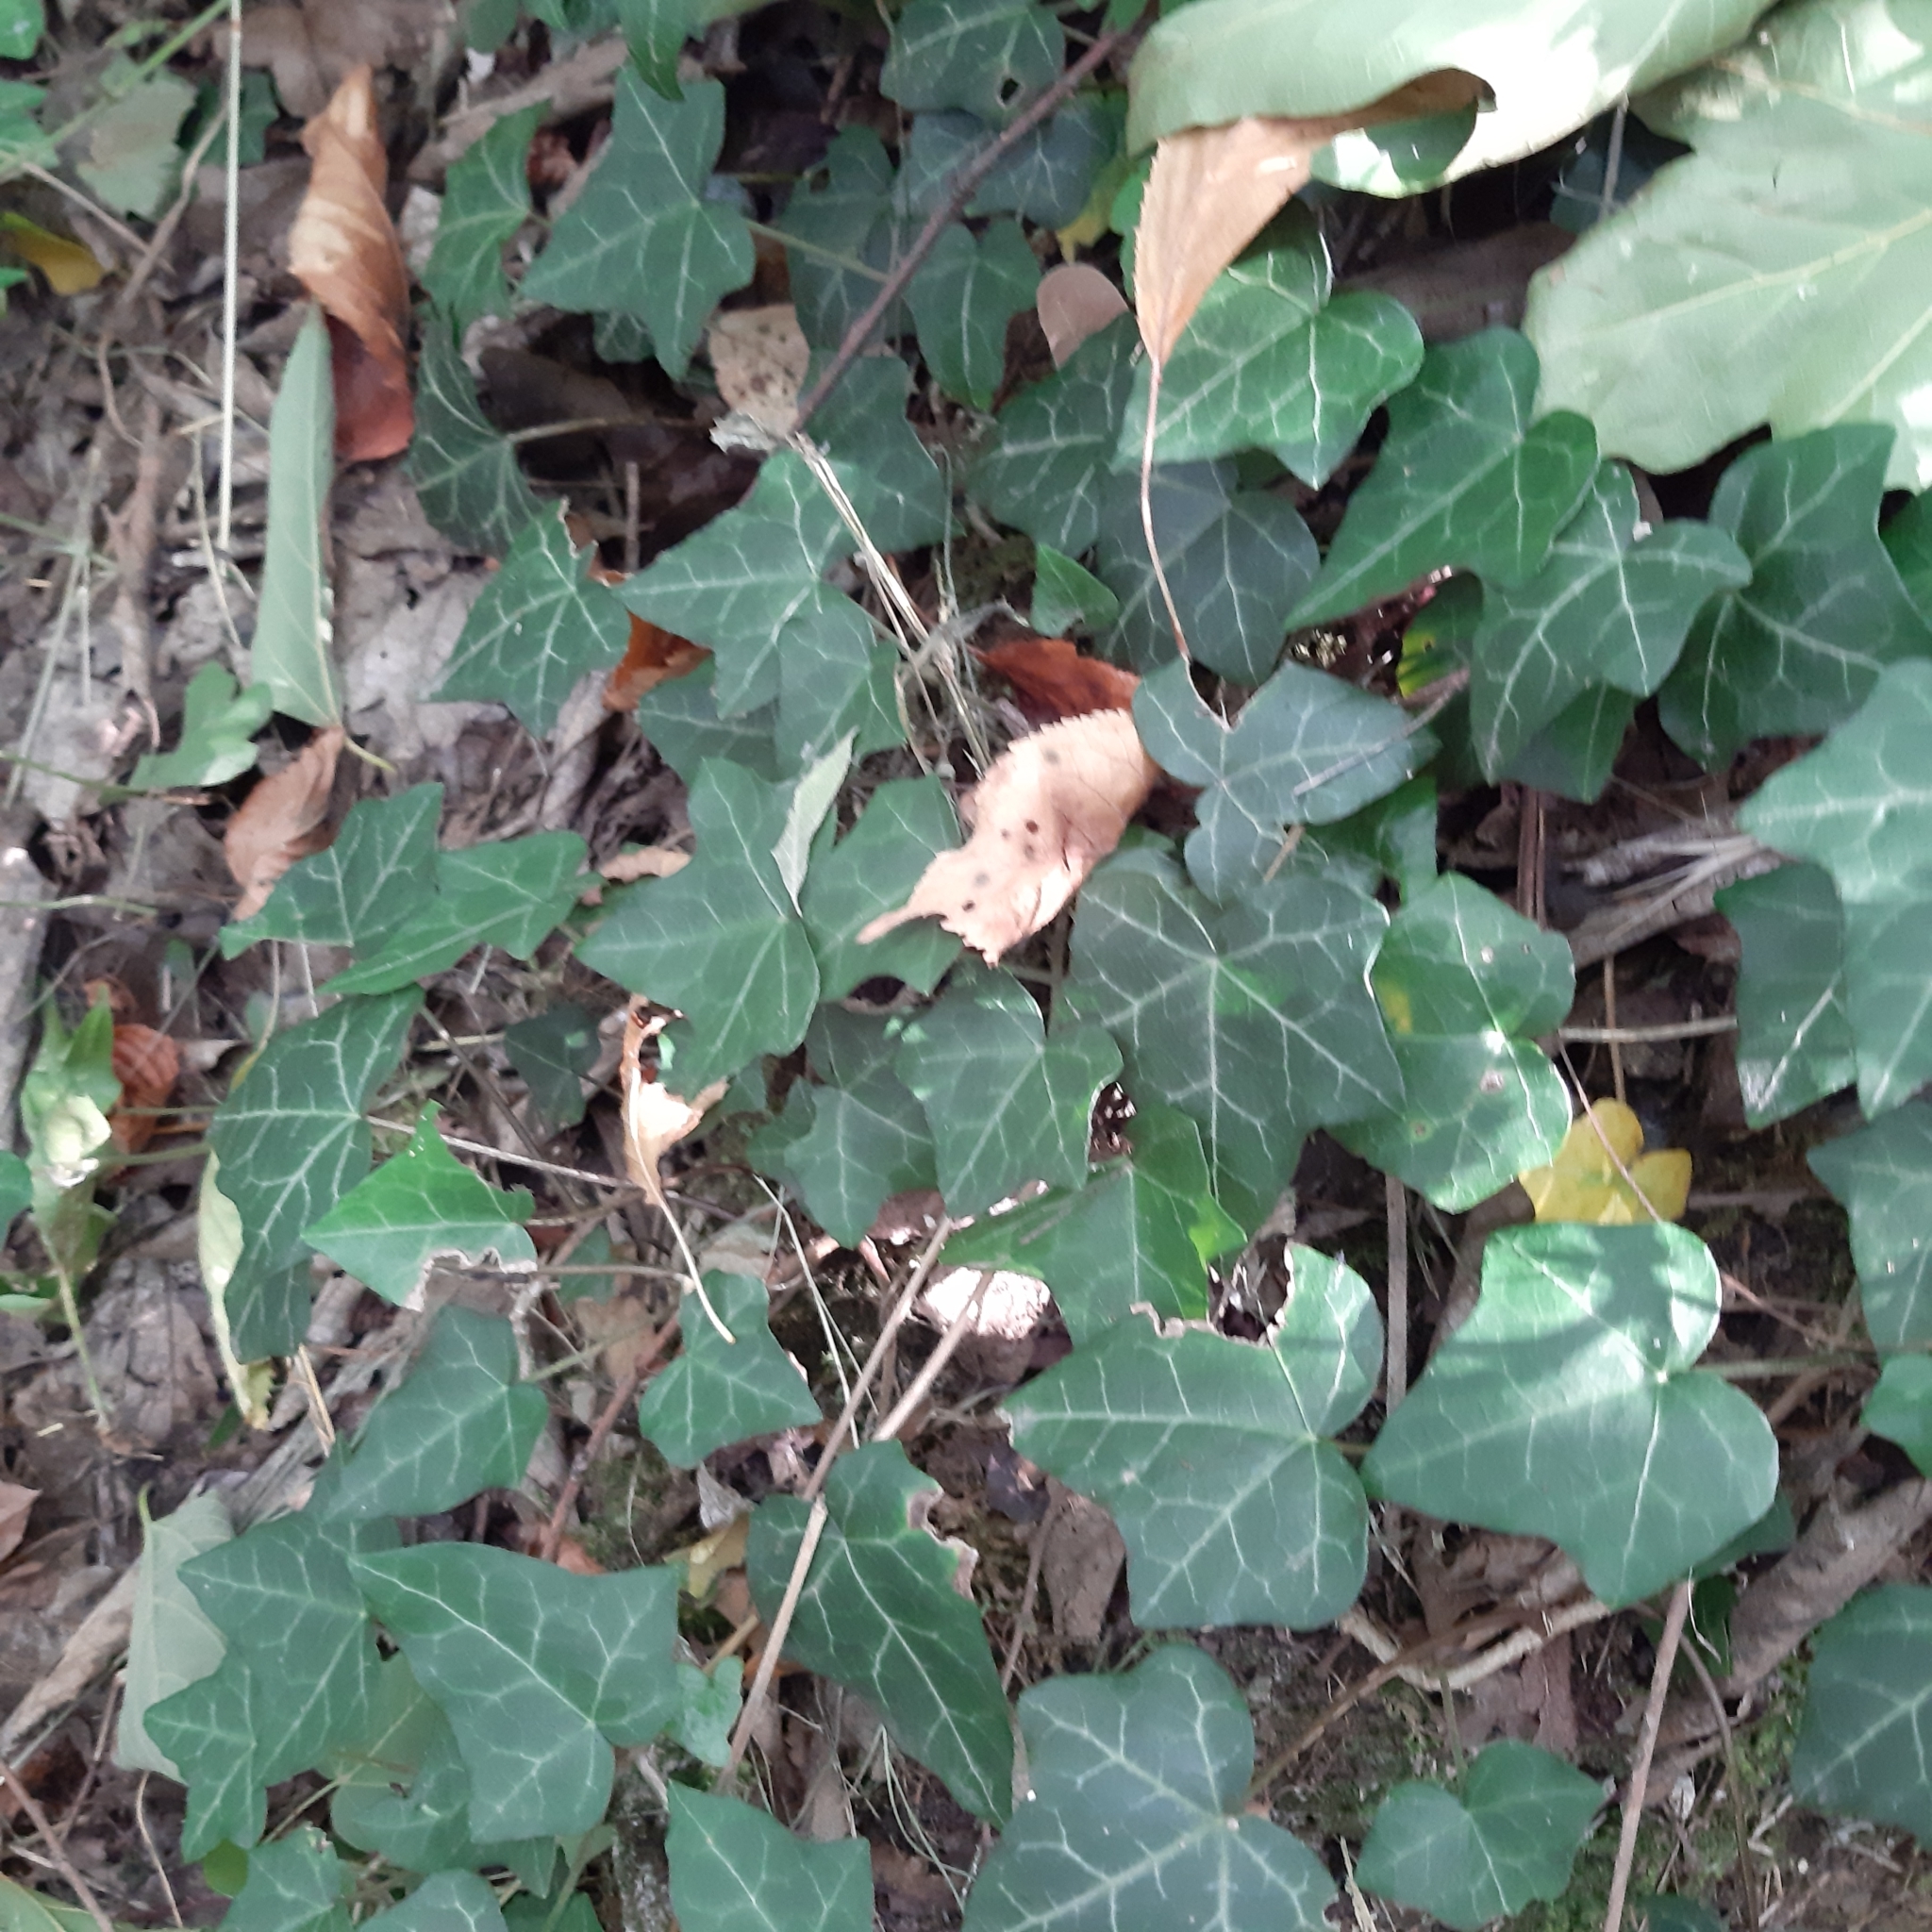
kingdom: Plantae
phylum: Tracheophyta
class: Magnoliopsida
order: Apiales
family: Araliaceae
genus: Hedera
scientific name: Hedera helix
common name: Ivy
